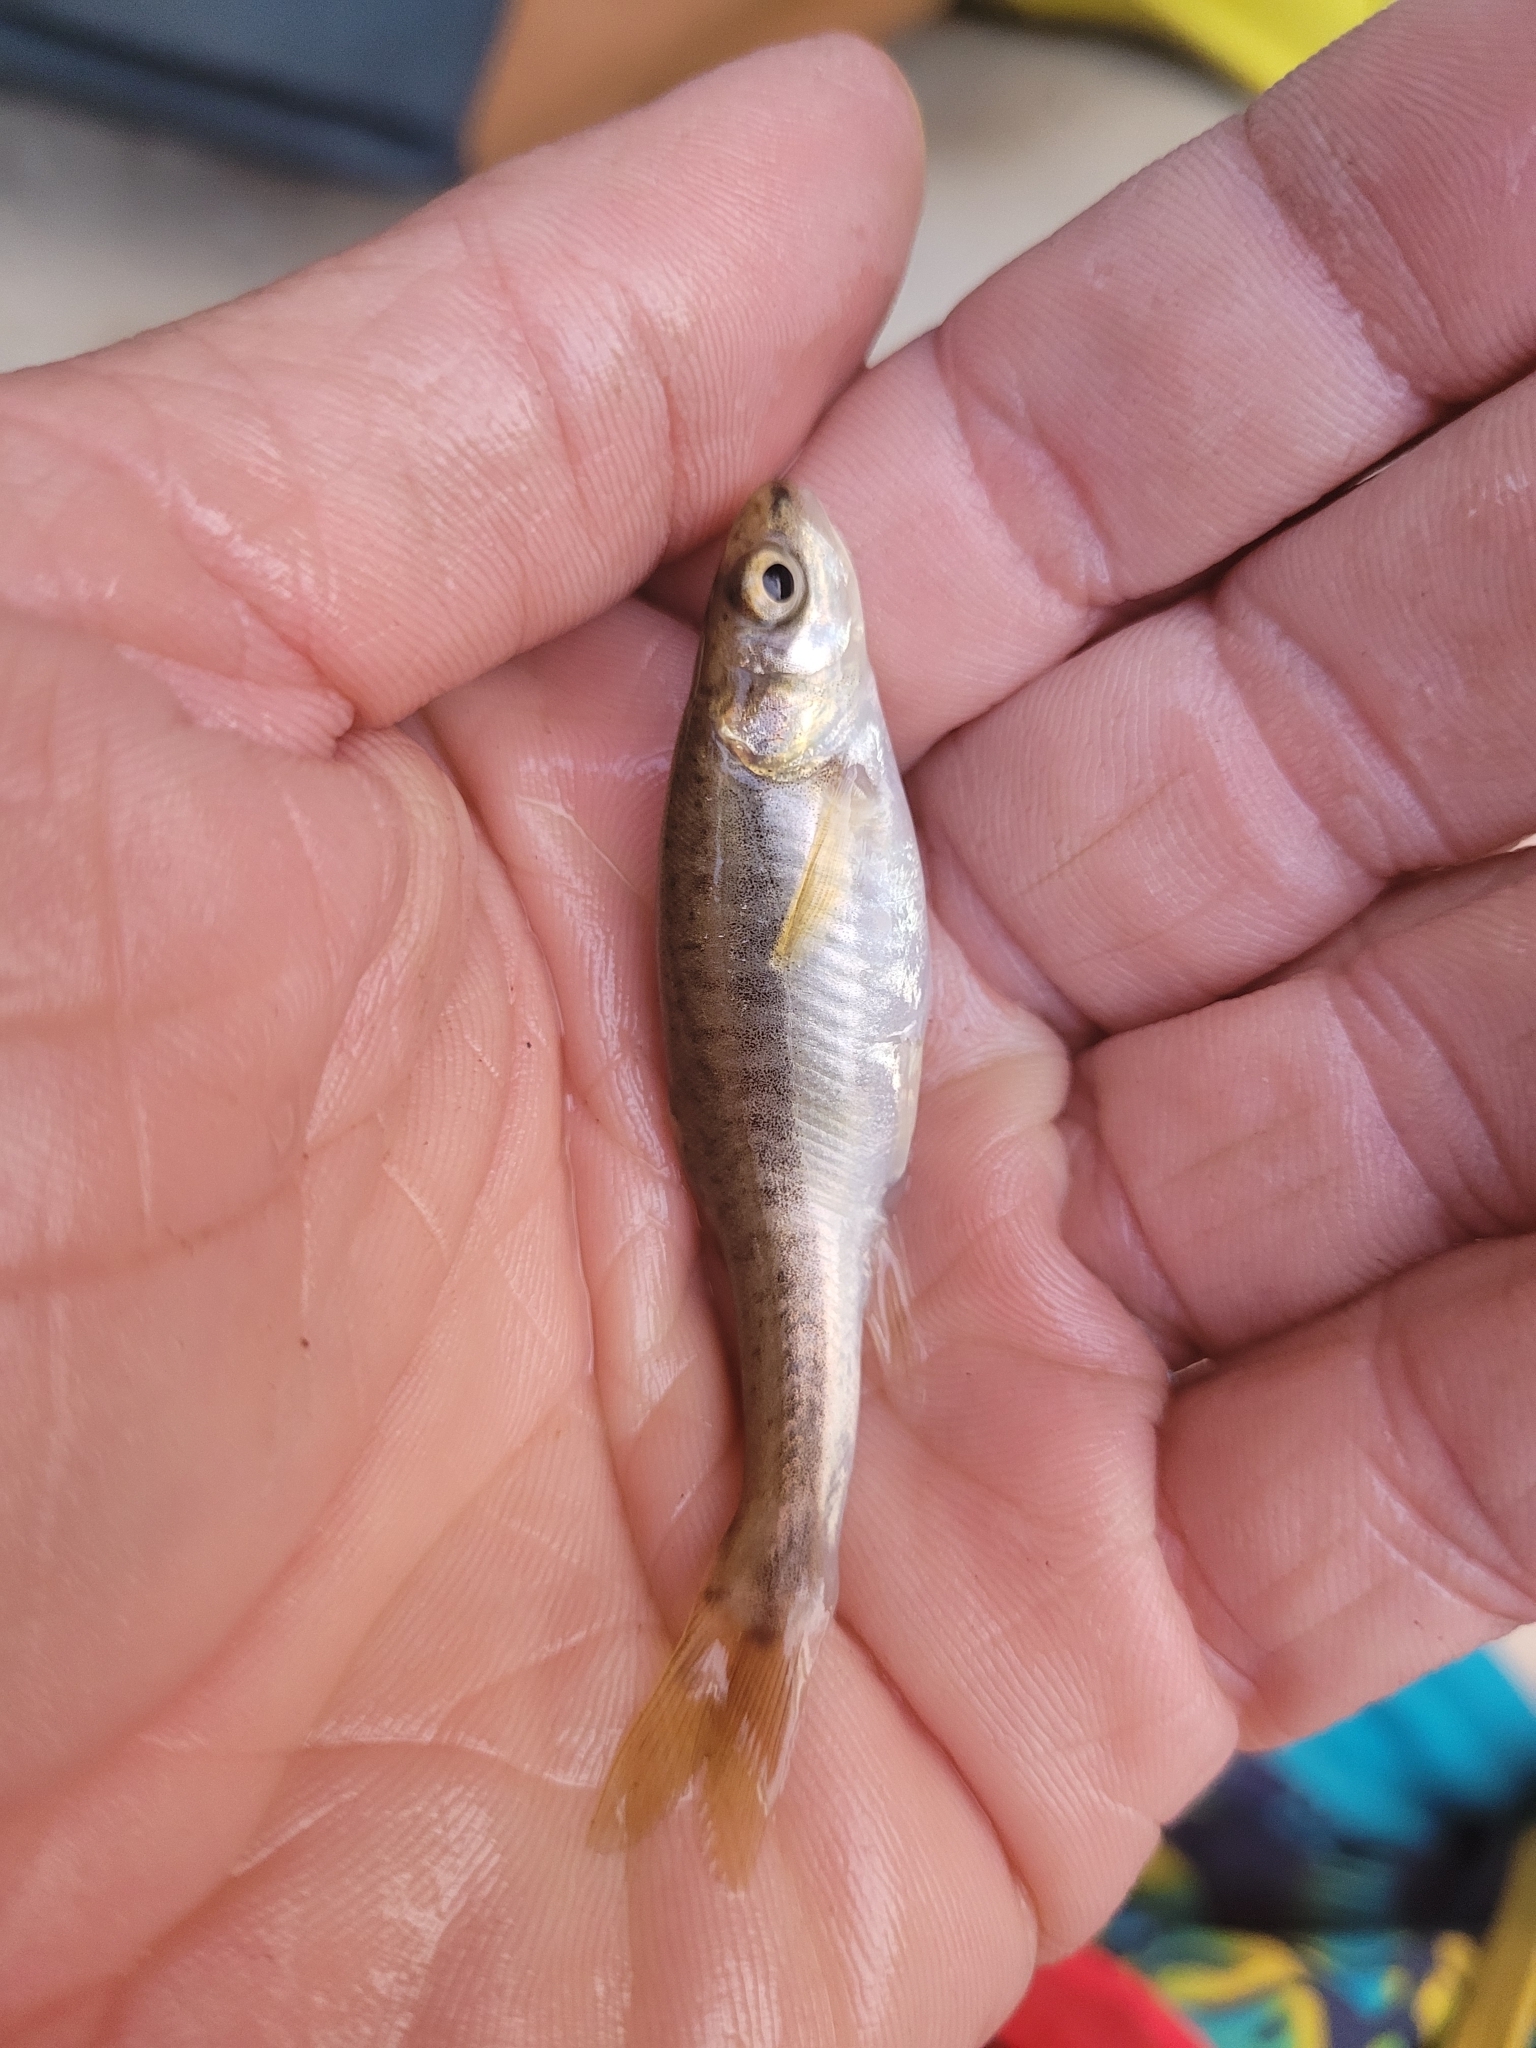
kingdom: Animalia
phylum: Chordata
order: Cypriniformes
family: Cyprinidae
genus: Phoxinus
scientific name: Phoxinus septimaniae
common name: Languedoc minnow
